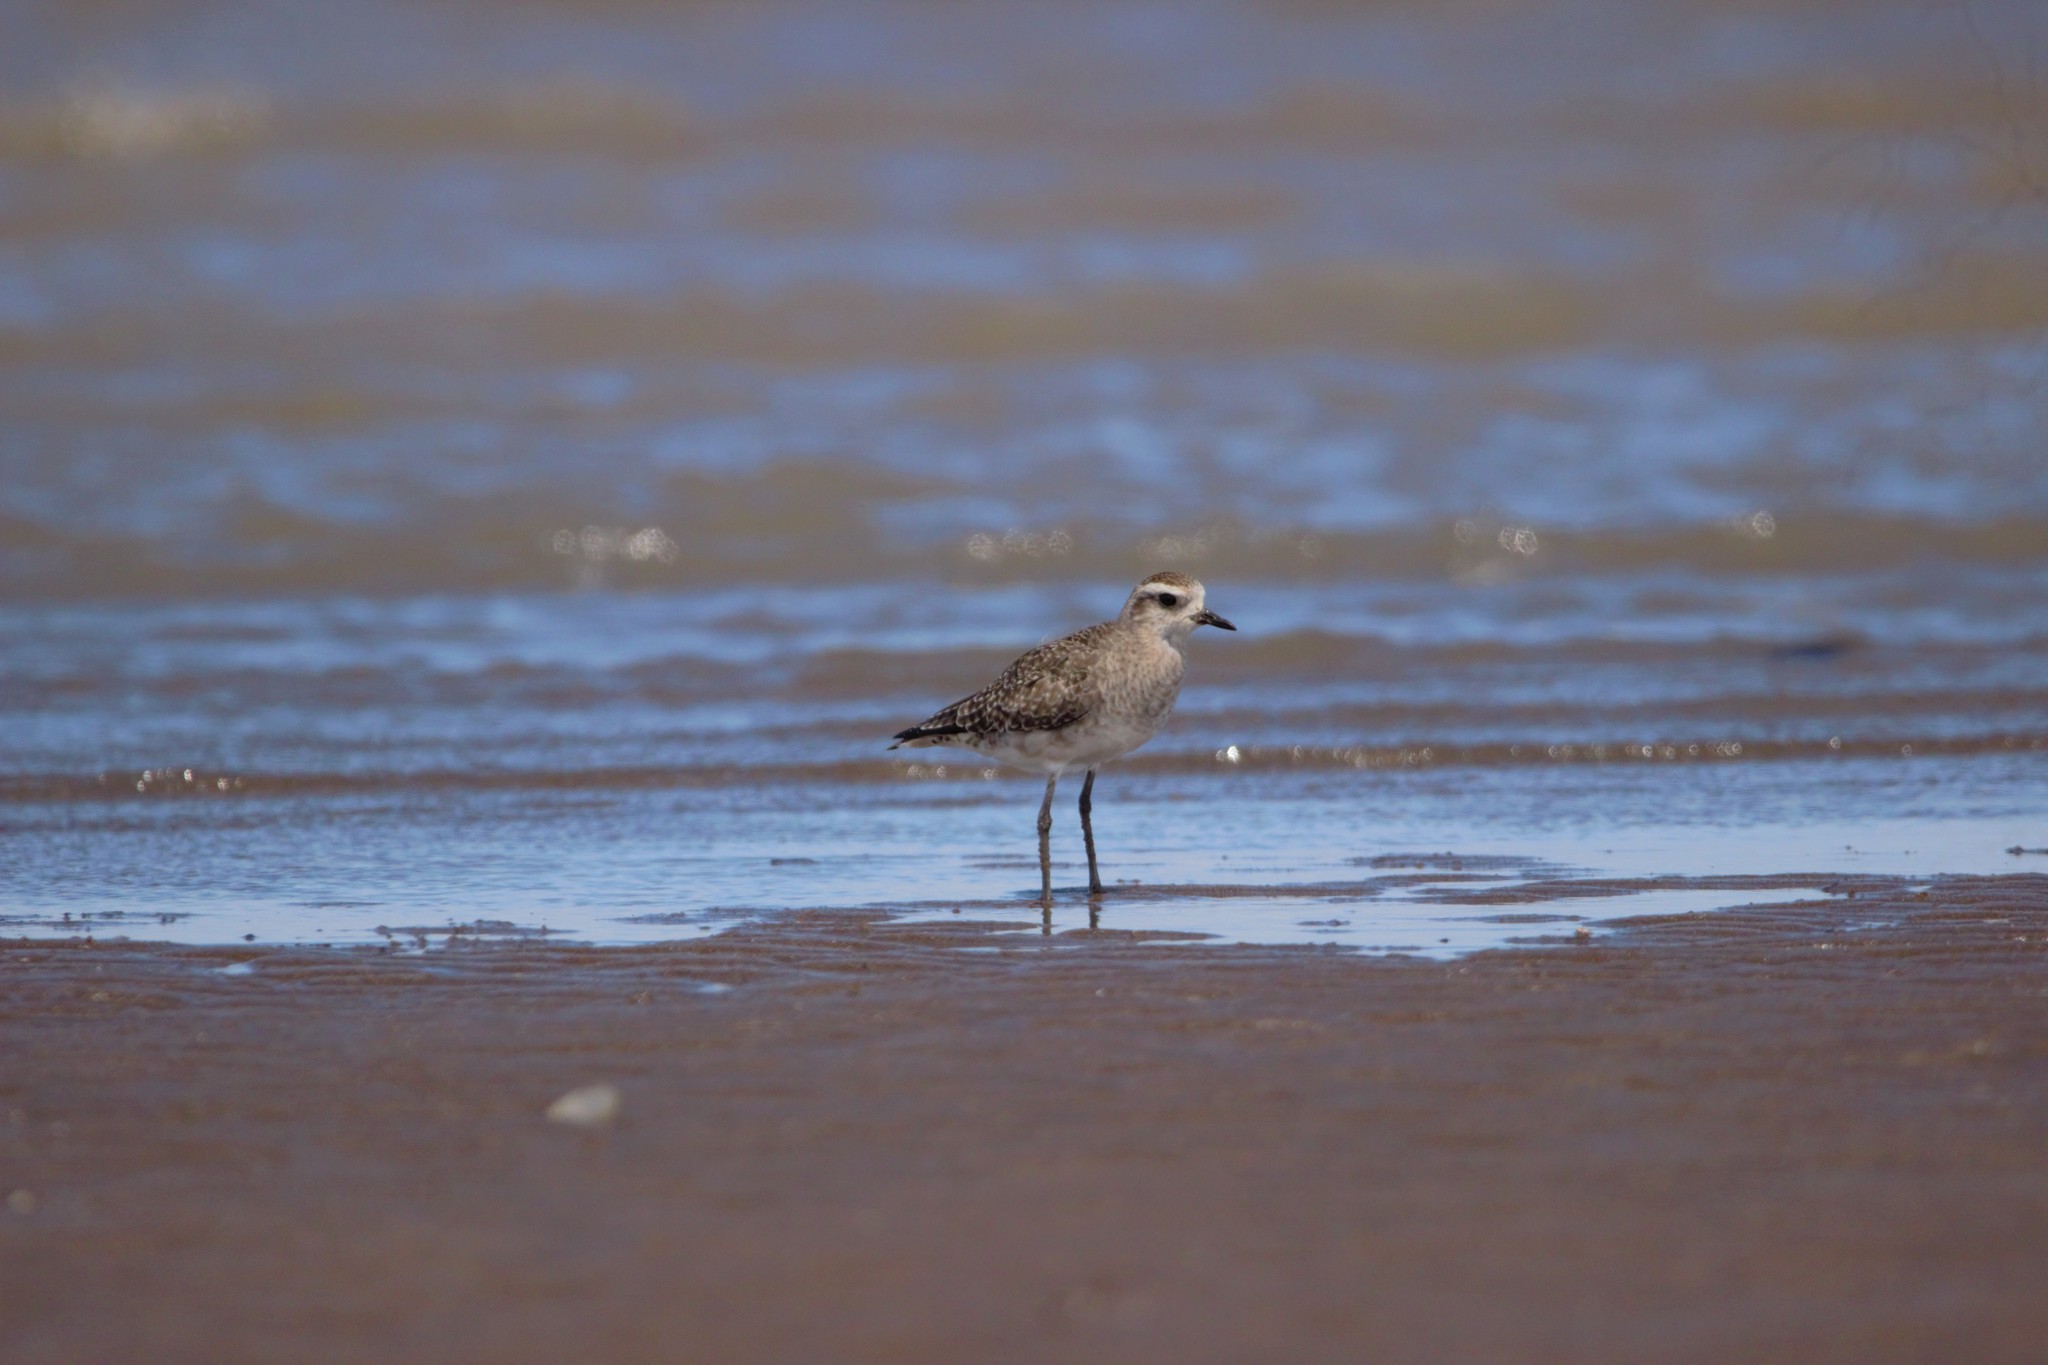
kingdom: Animalia
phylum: Chordata
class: Aves
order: Charadriiformes
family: Charadriidae
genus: Pluvialis
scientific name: Pluvialis dominica
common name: American golden plover
